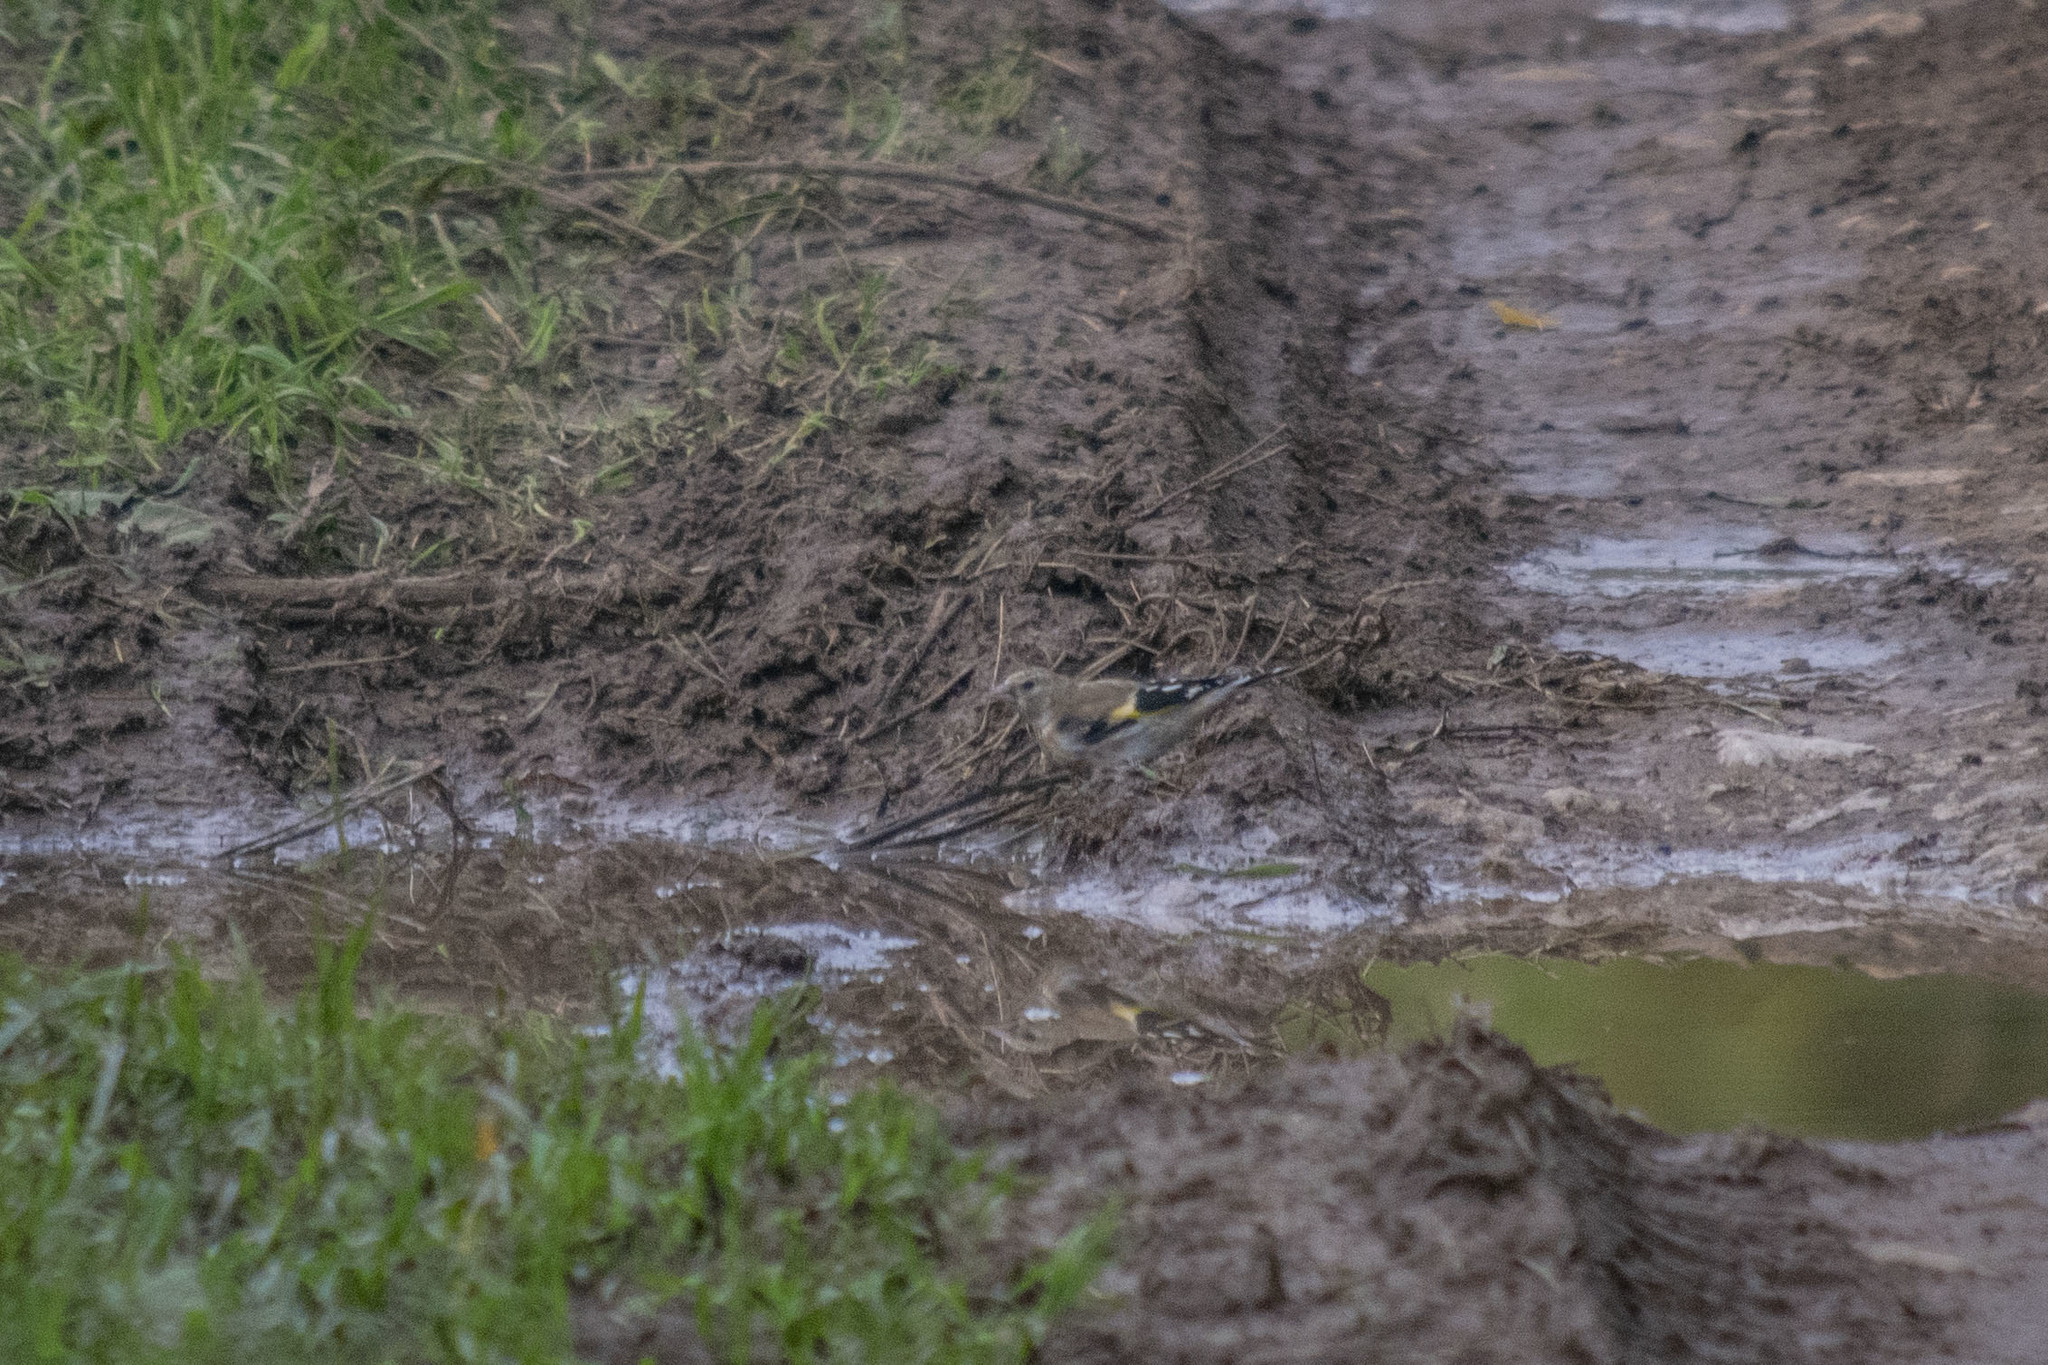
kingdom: Animalia
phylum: Chordata
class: Aves
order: Passeriformes
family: Fringillidae
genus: Carduelis
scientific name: Carduelis carduelis
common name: European goldfinch
